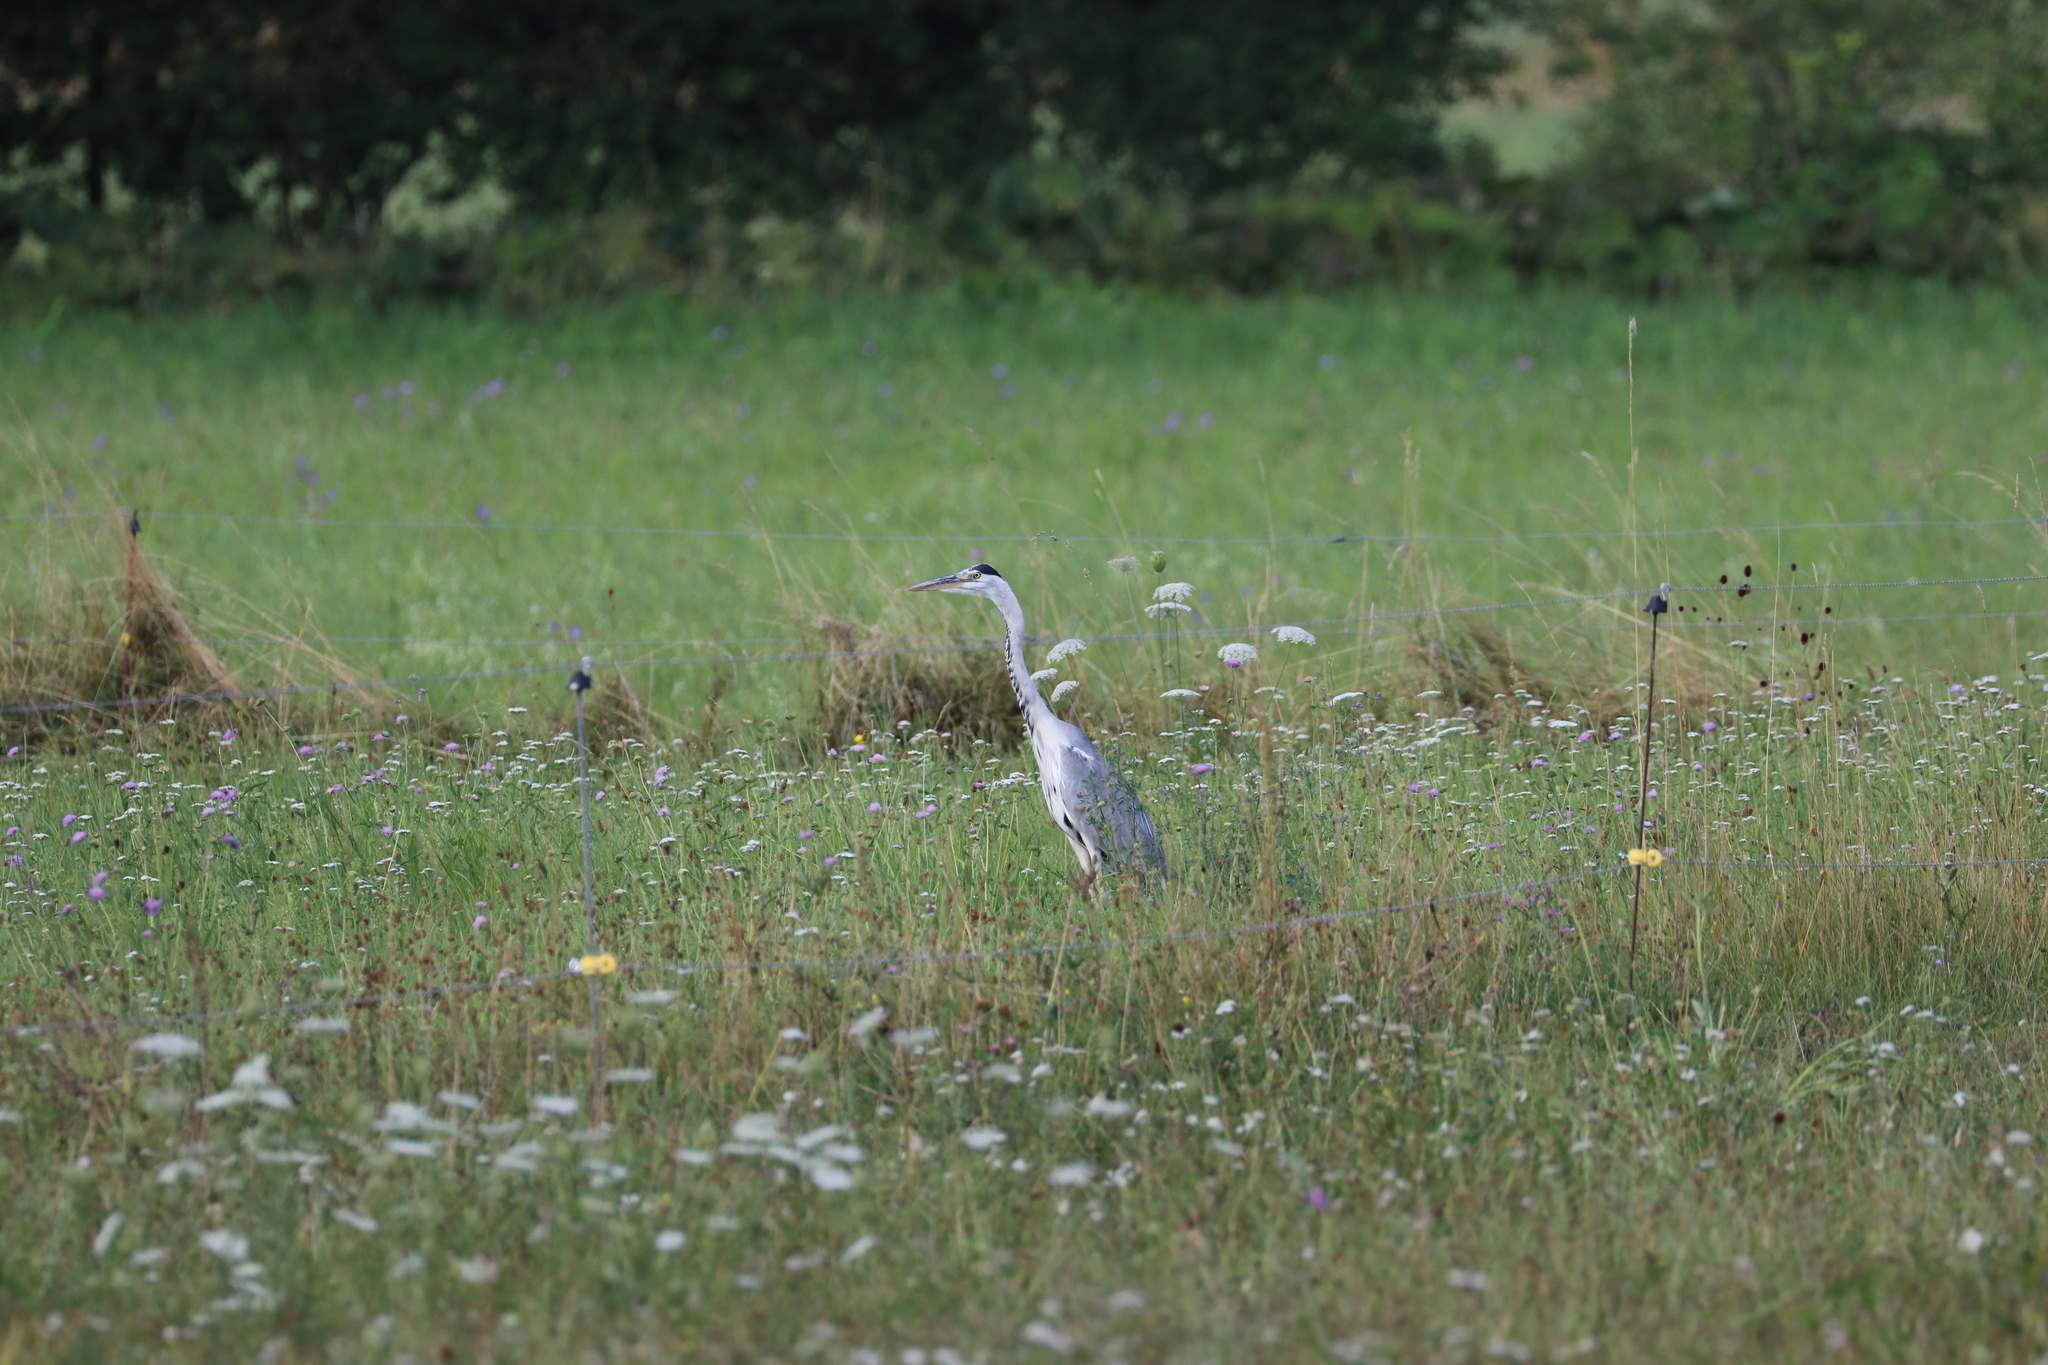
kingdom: Animalia
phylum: Chordata
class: Aves
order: Pelecaniformes
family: Ardeidae
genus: Ardea
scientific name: Ardea cinerea
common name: Grey heron
